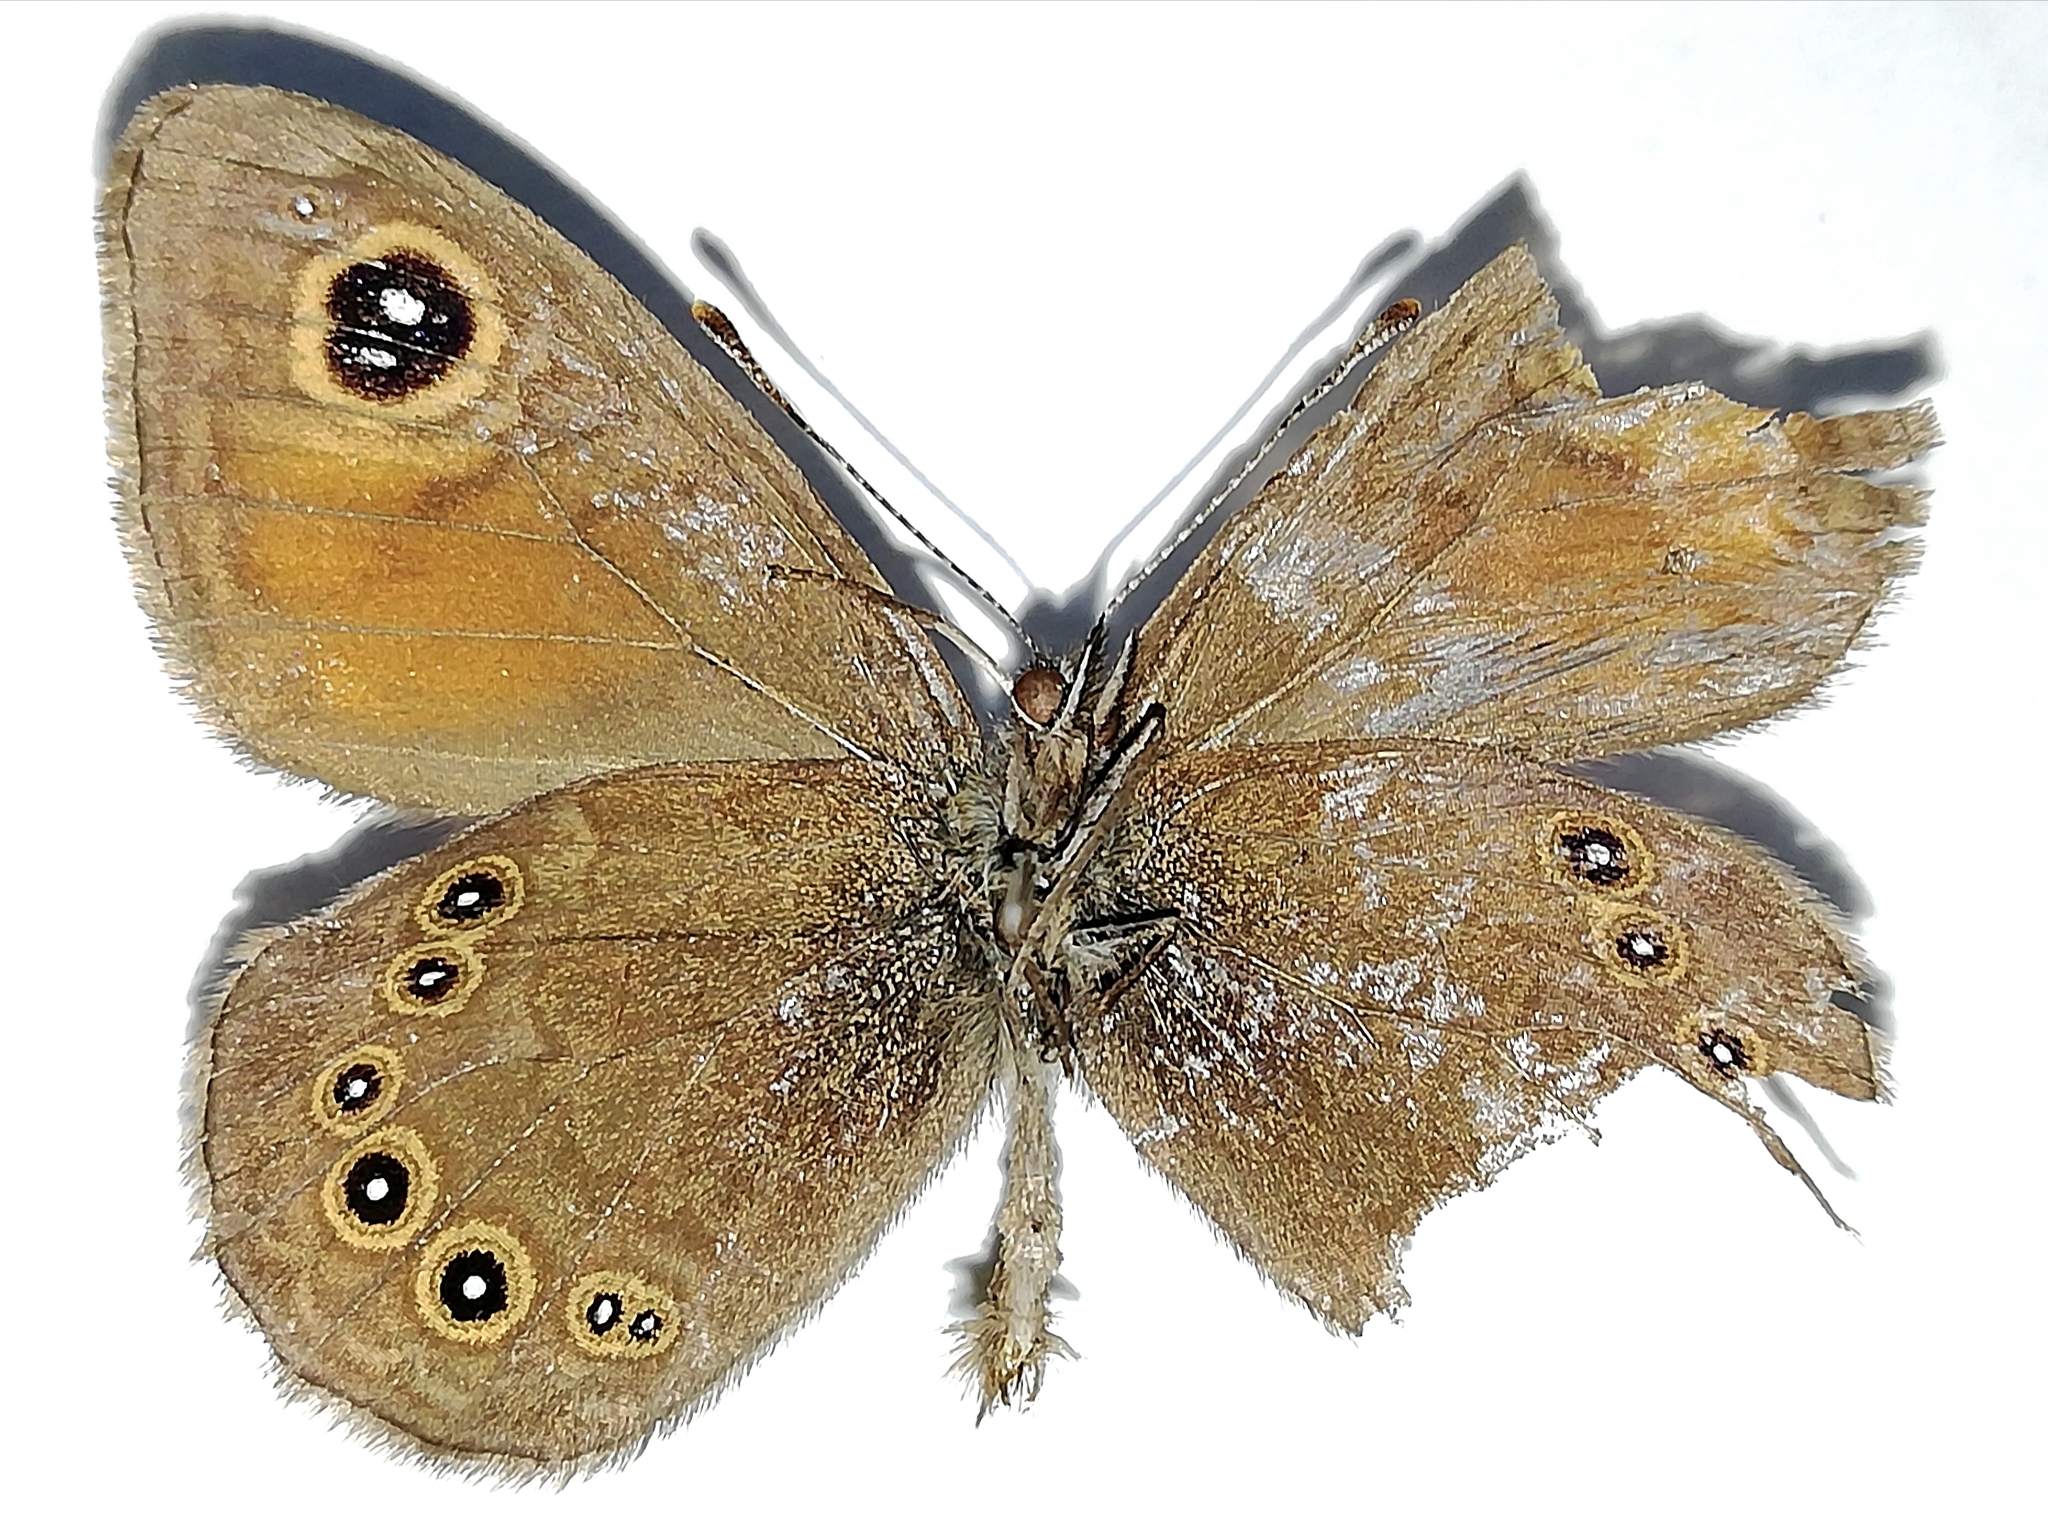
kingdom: Animalia
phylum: Arthropoda
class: Insecta
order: Lepidoptera
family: Nymphalidae
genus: Pararge
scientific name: Pararge Lasiommata maera
